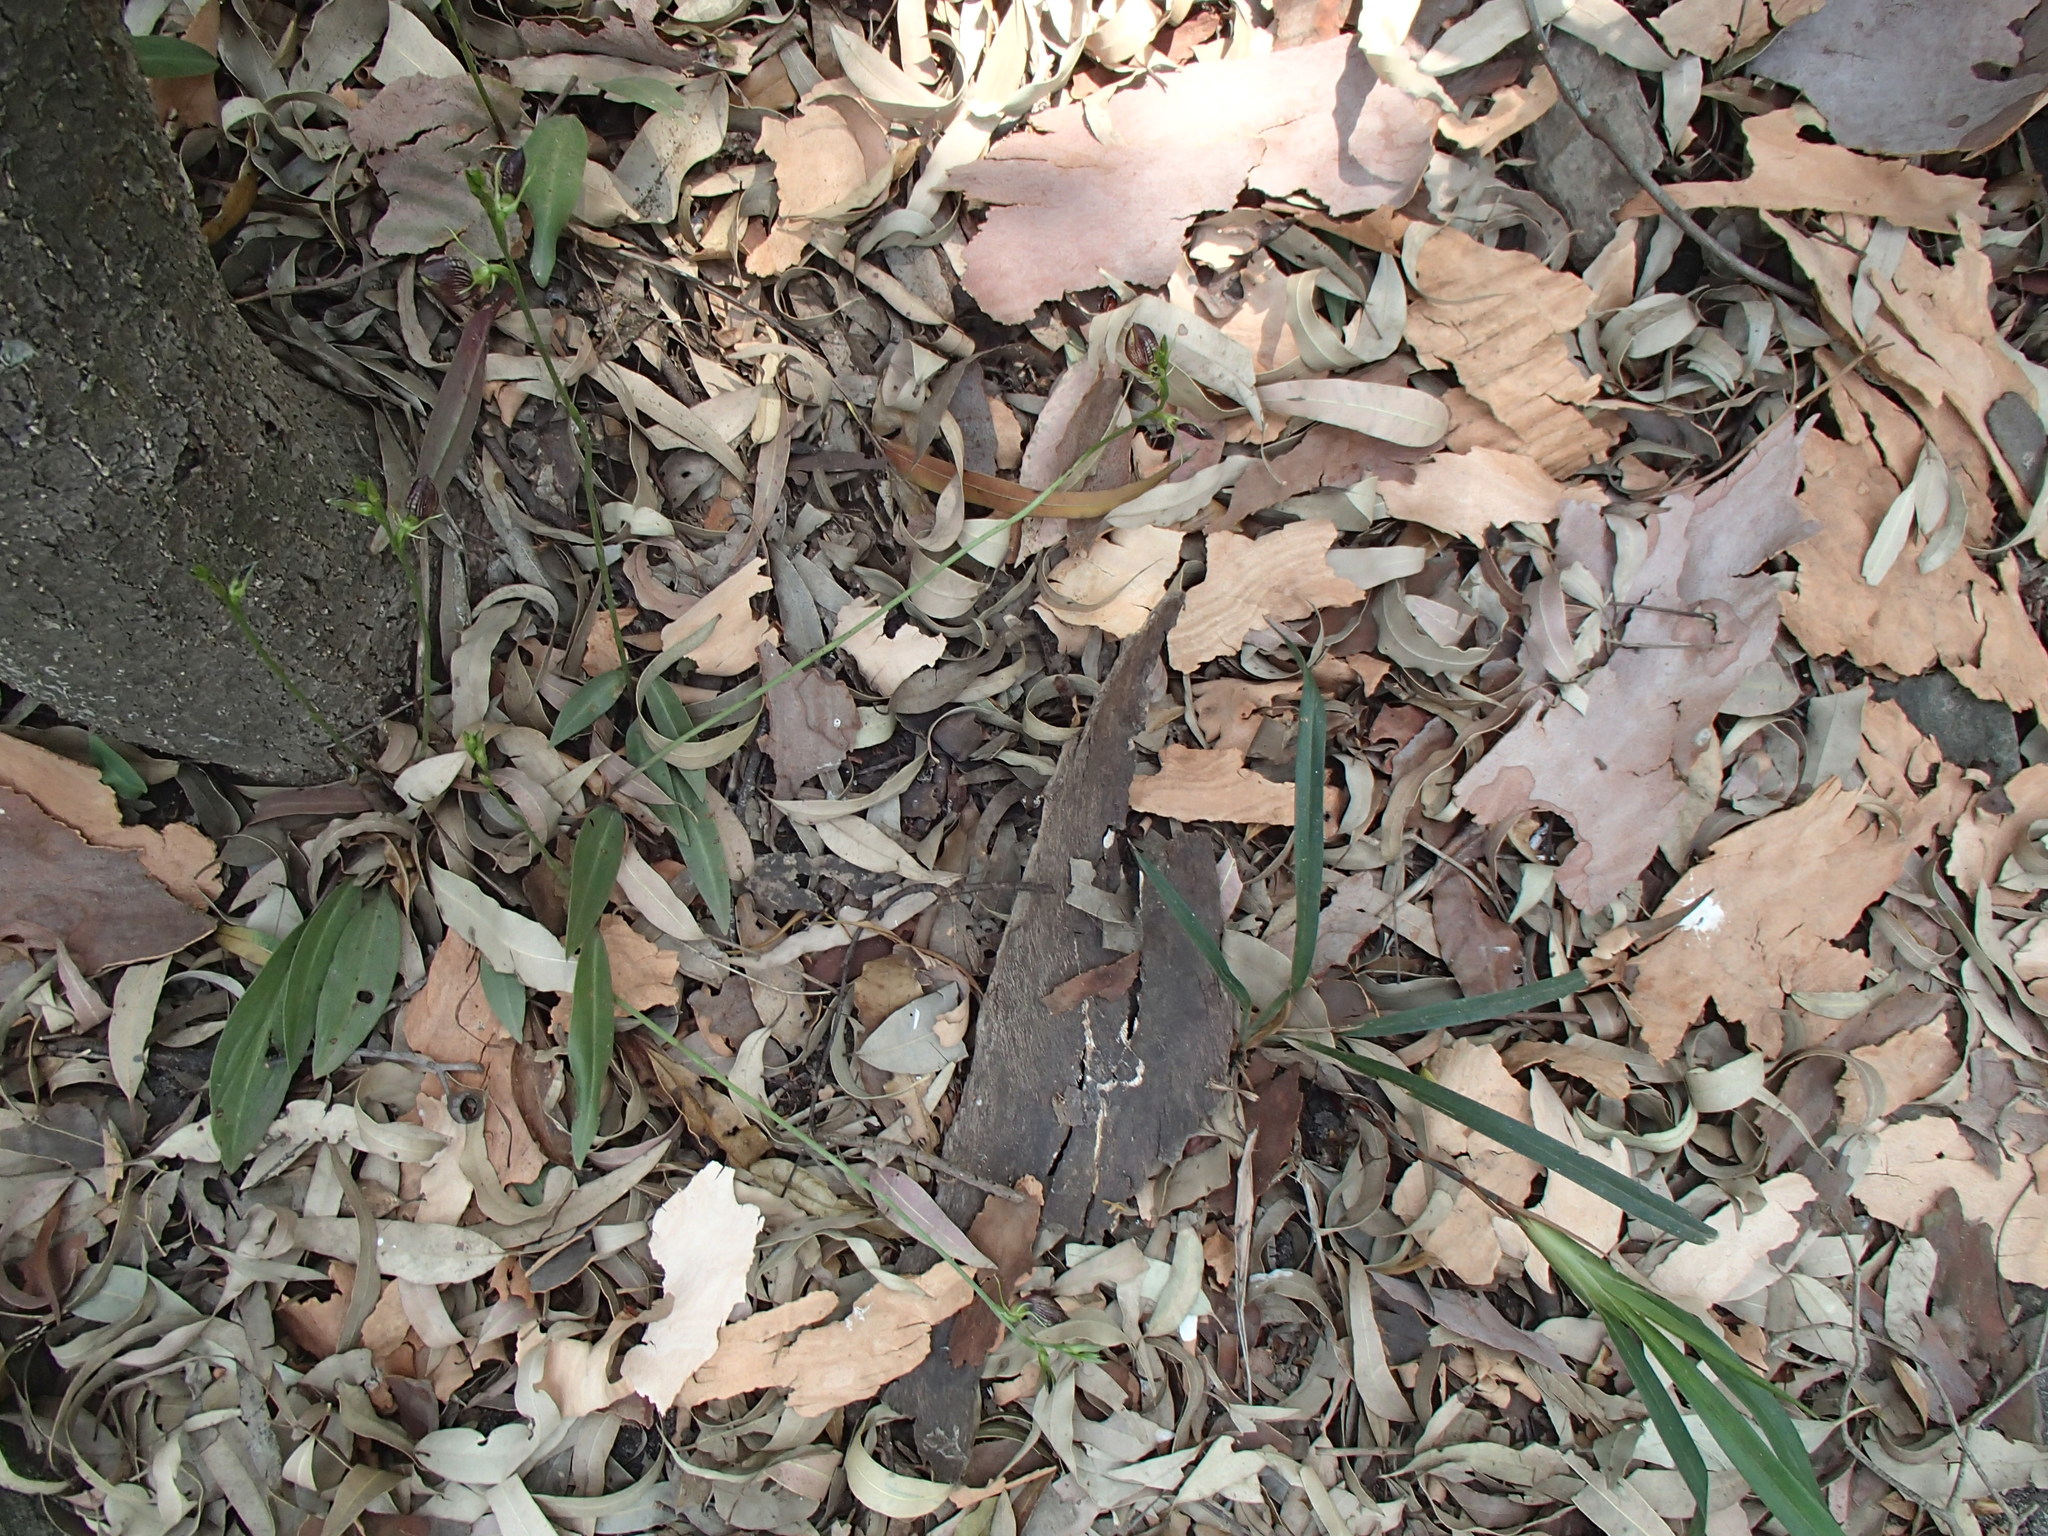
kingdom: Plantae
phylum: Tracheophyta
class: Liliopsida
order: Asparagales
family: Orchidaceae
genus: Cryptostylis
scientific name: Cryptostylis erecta
